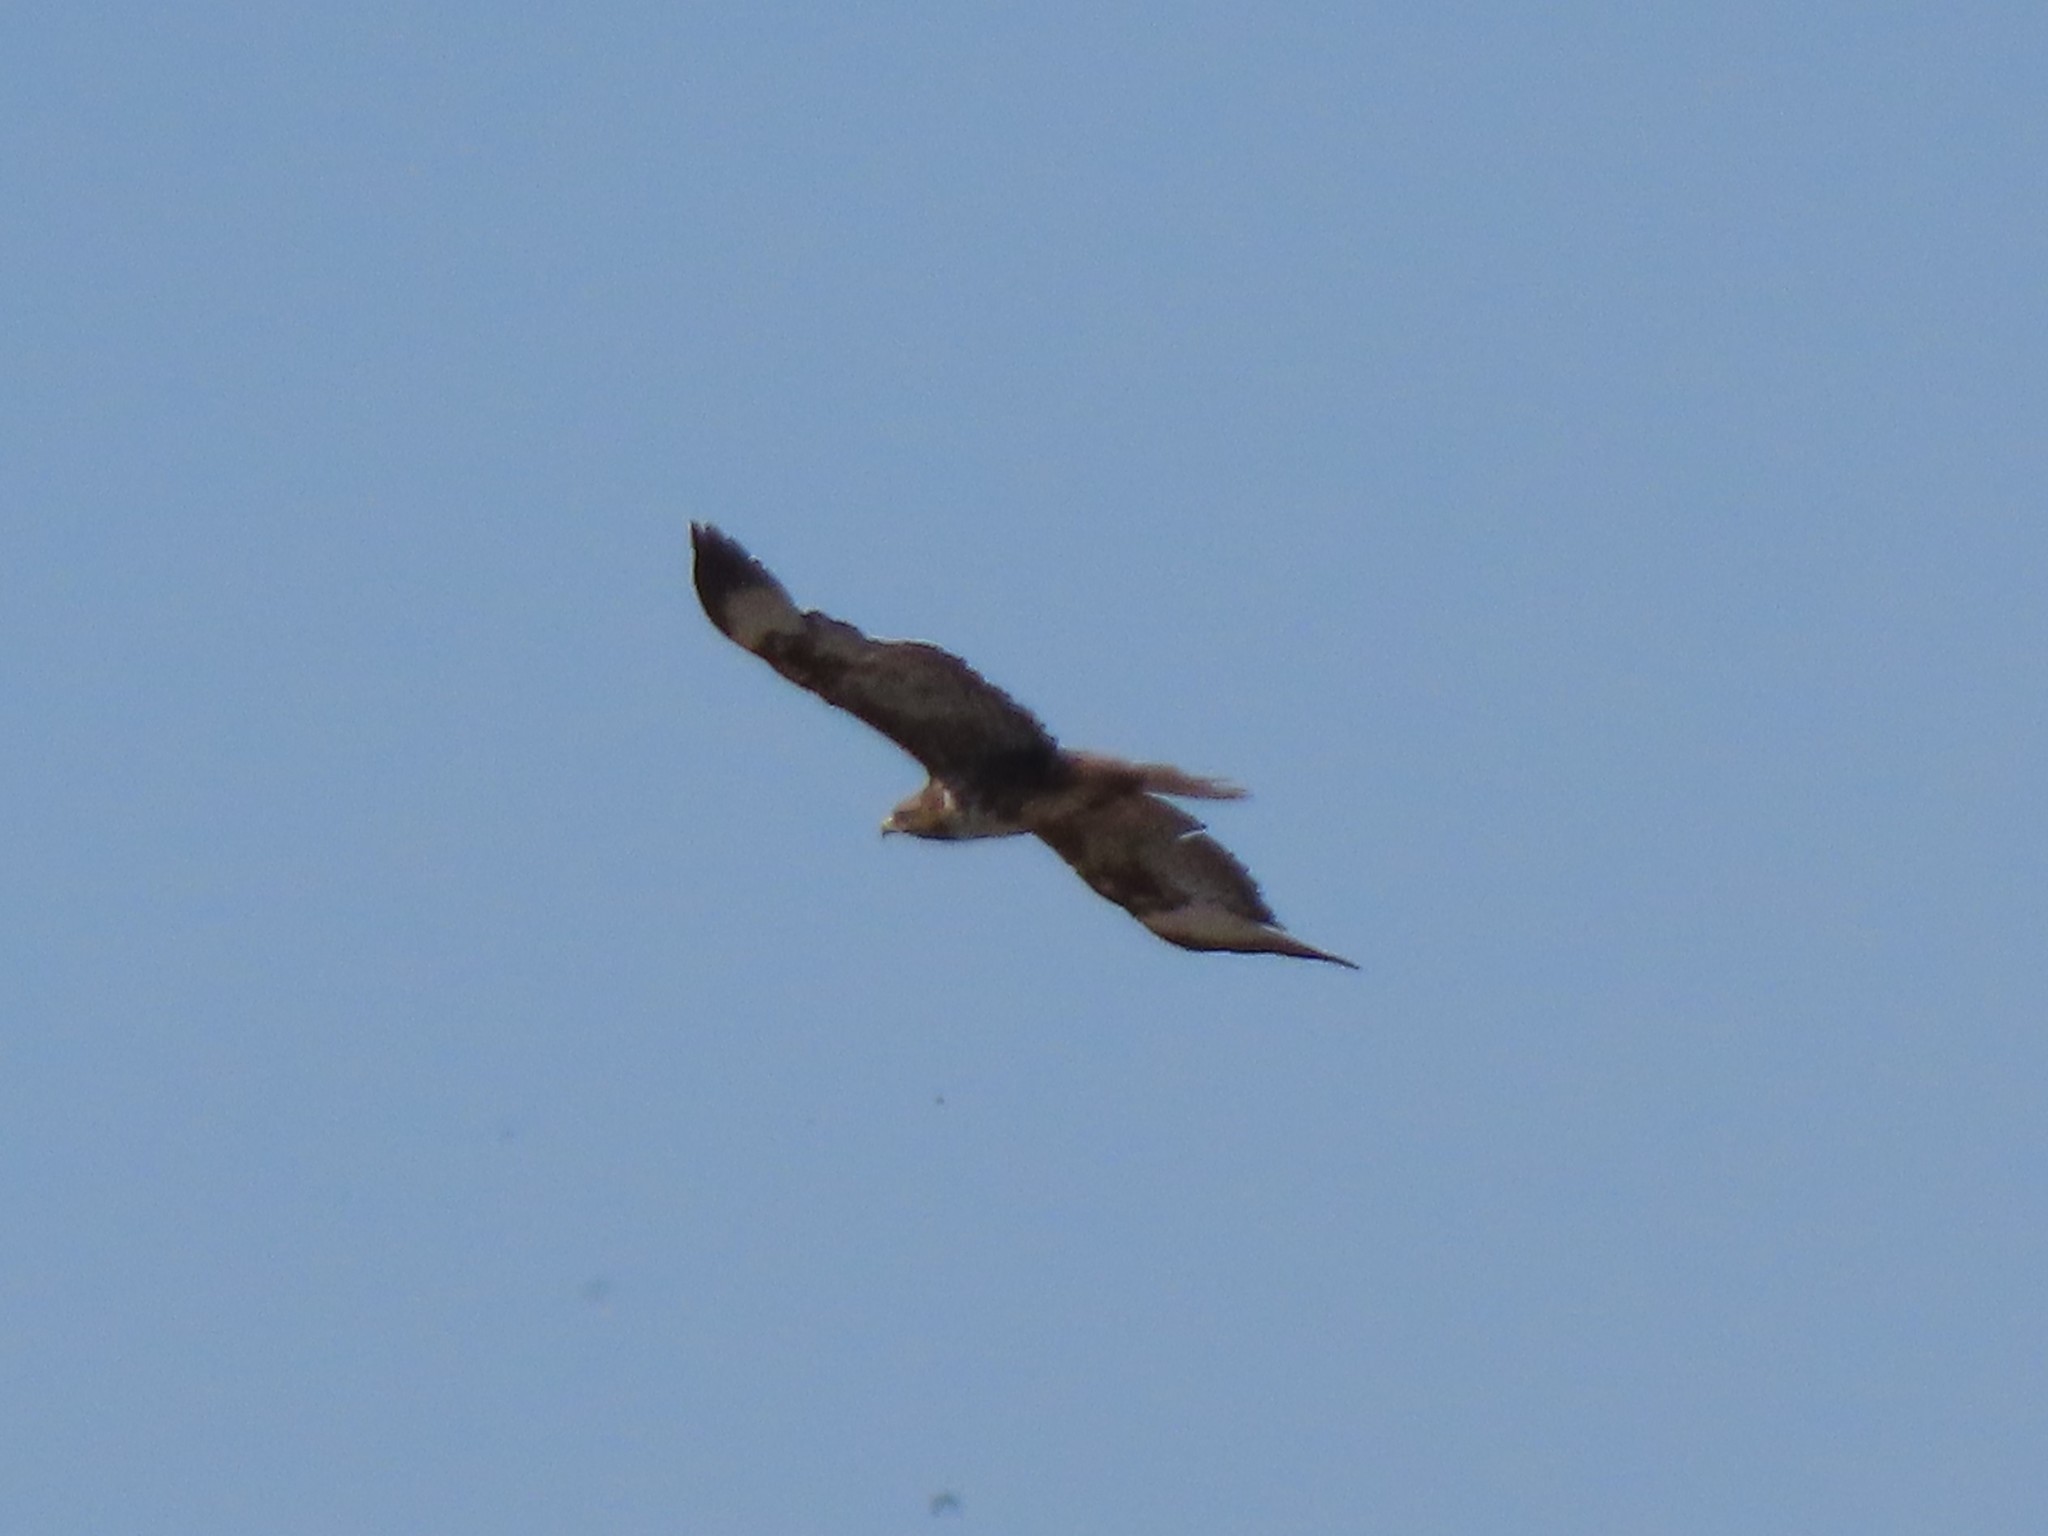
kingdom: Animalia
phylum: Chordata
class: Aves
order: Accipitriformes
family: Accipitridae
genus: Buteo
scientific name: Buteo buteo
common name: Common buzzard
